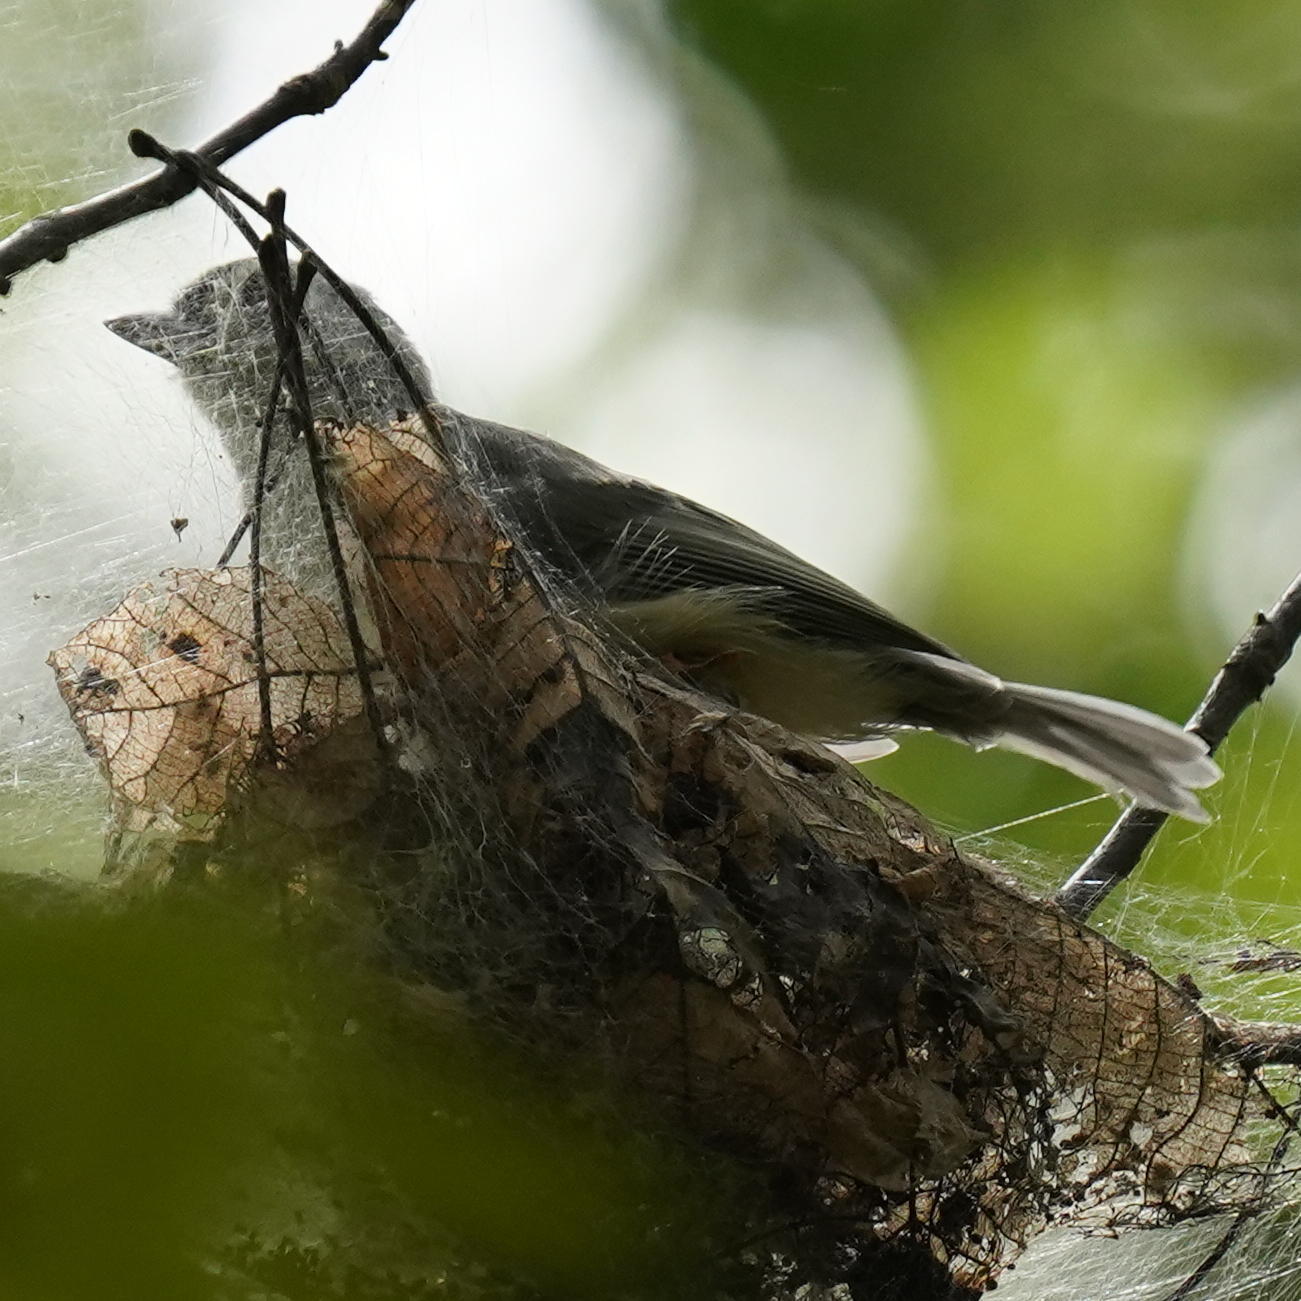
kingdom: Animalia
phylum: Chordata
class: Aves
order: Passeriformes
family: Paridae
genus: Baeolophus
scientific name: Baeolophus bicolor
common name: Tufted titmouse
